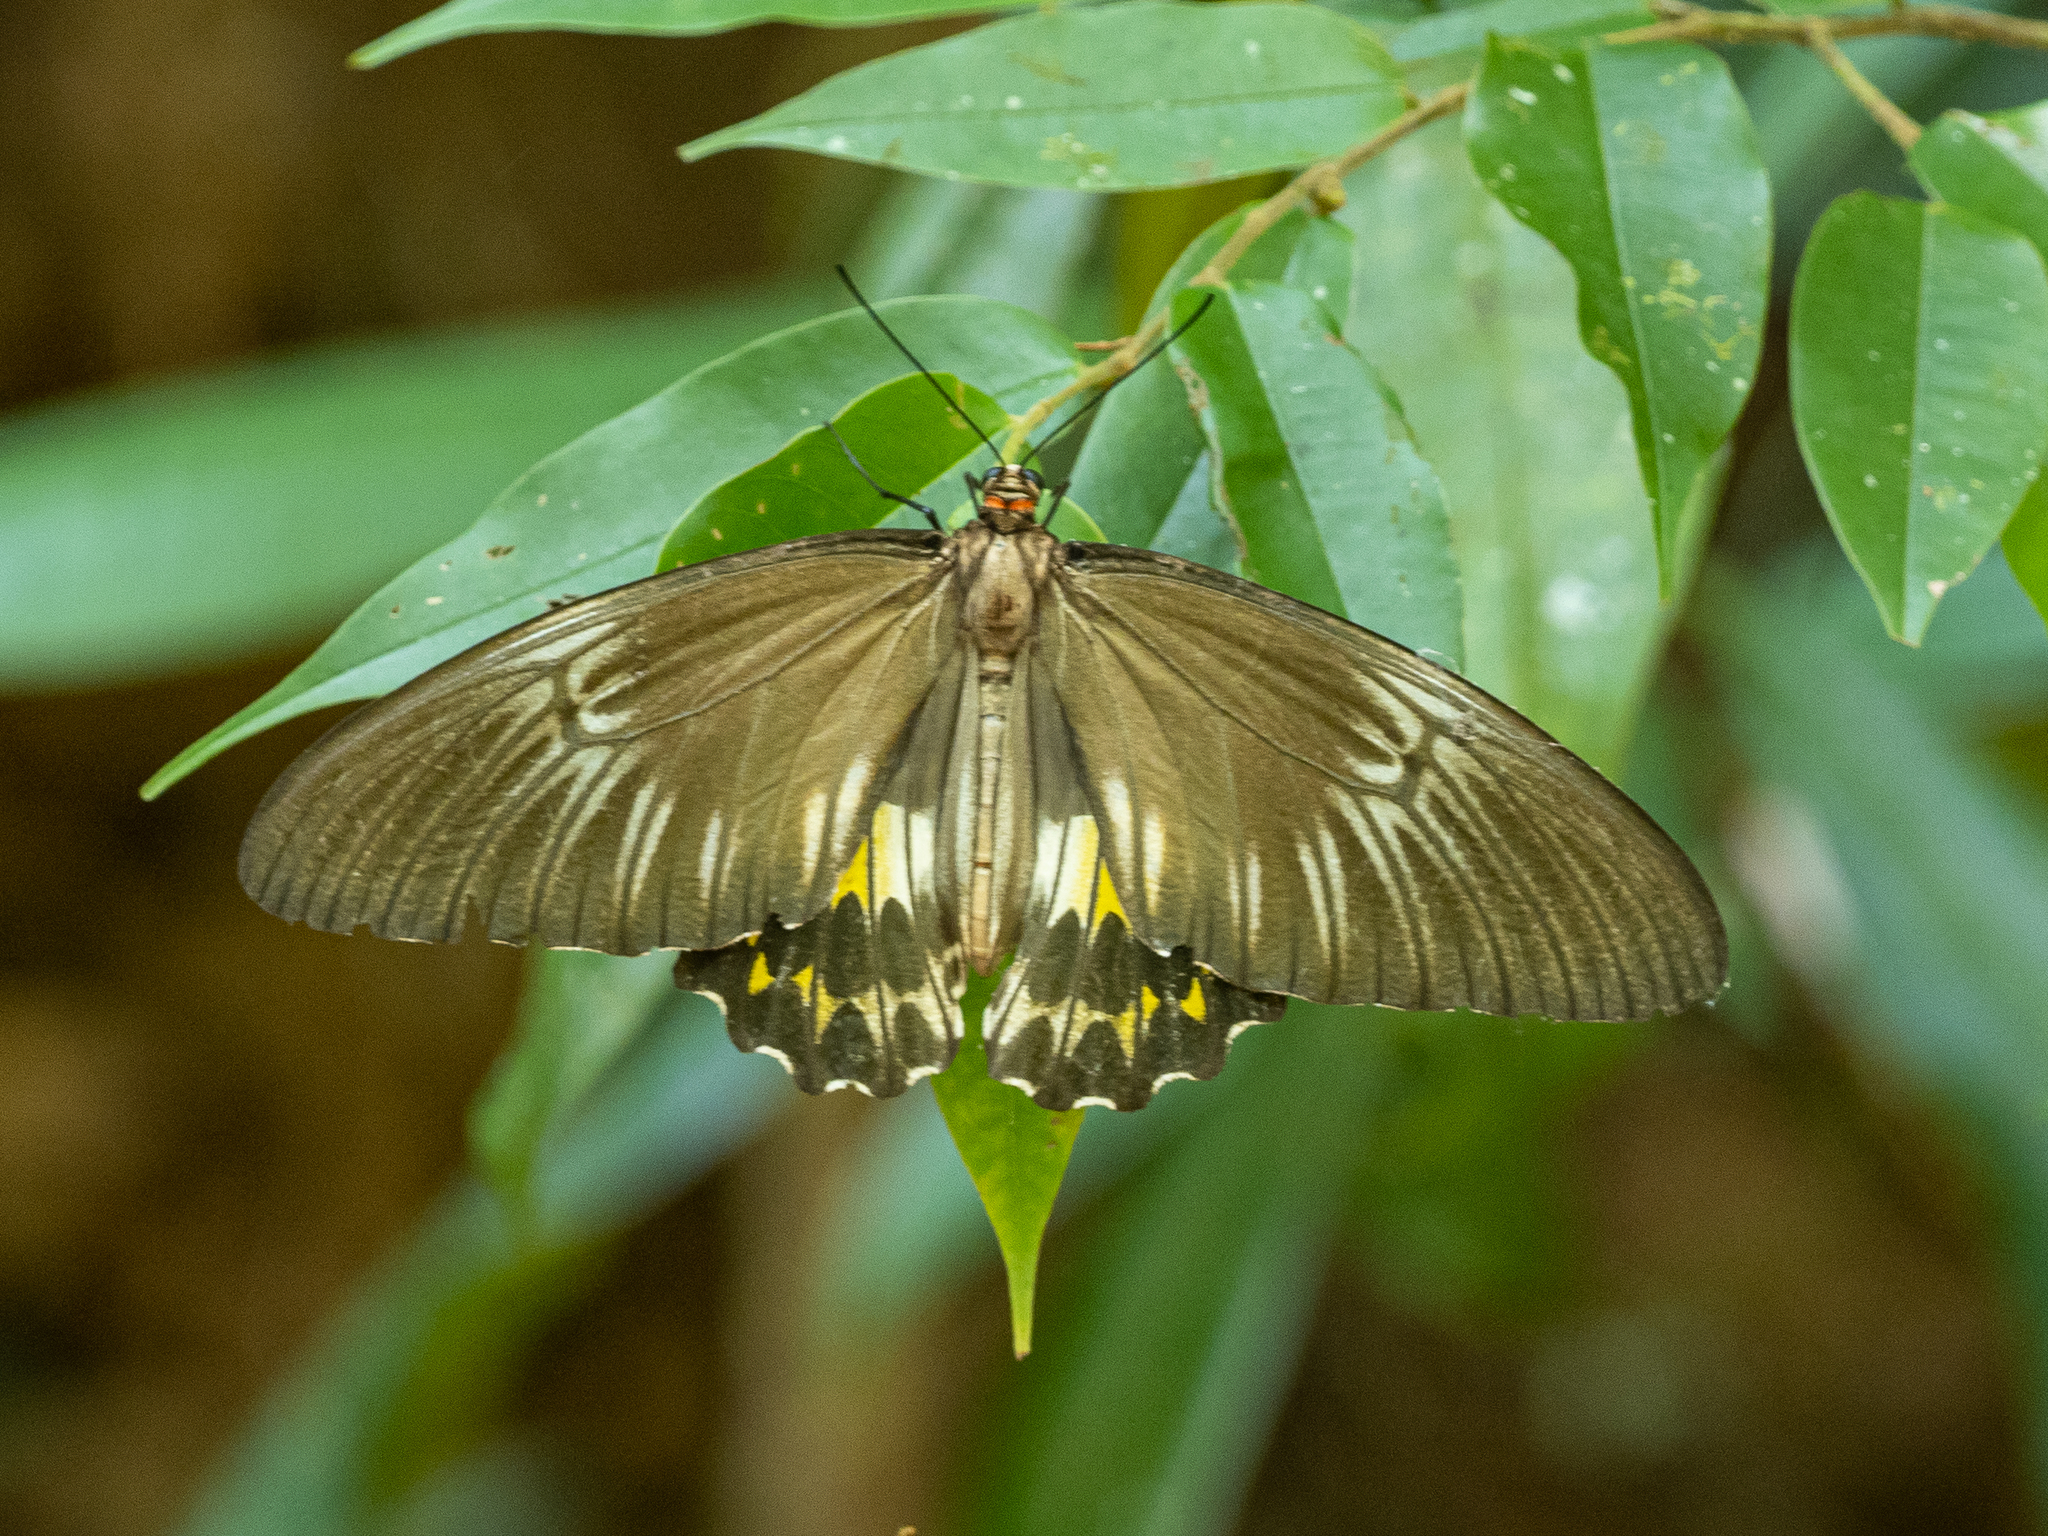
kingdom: Animalia
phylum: Arthropoda
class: Insecta
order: Lepidoptera
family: Papilionidae
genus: Troides
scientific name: Troides darsius
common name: Sri lankan birdwing
